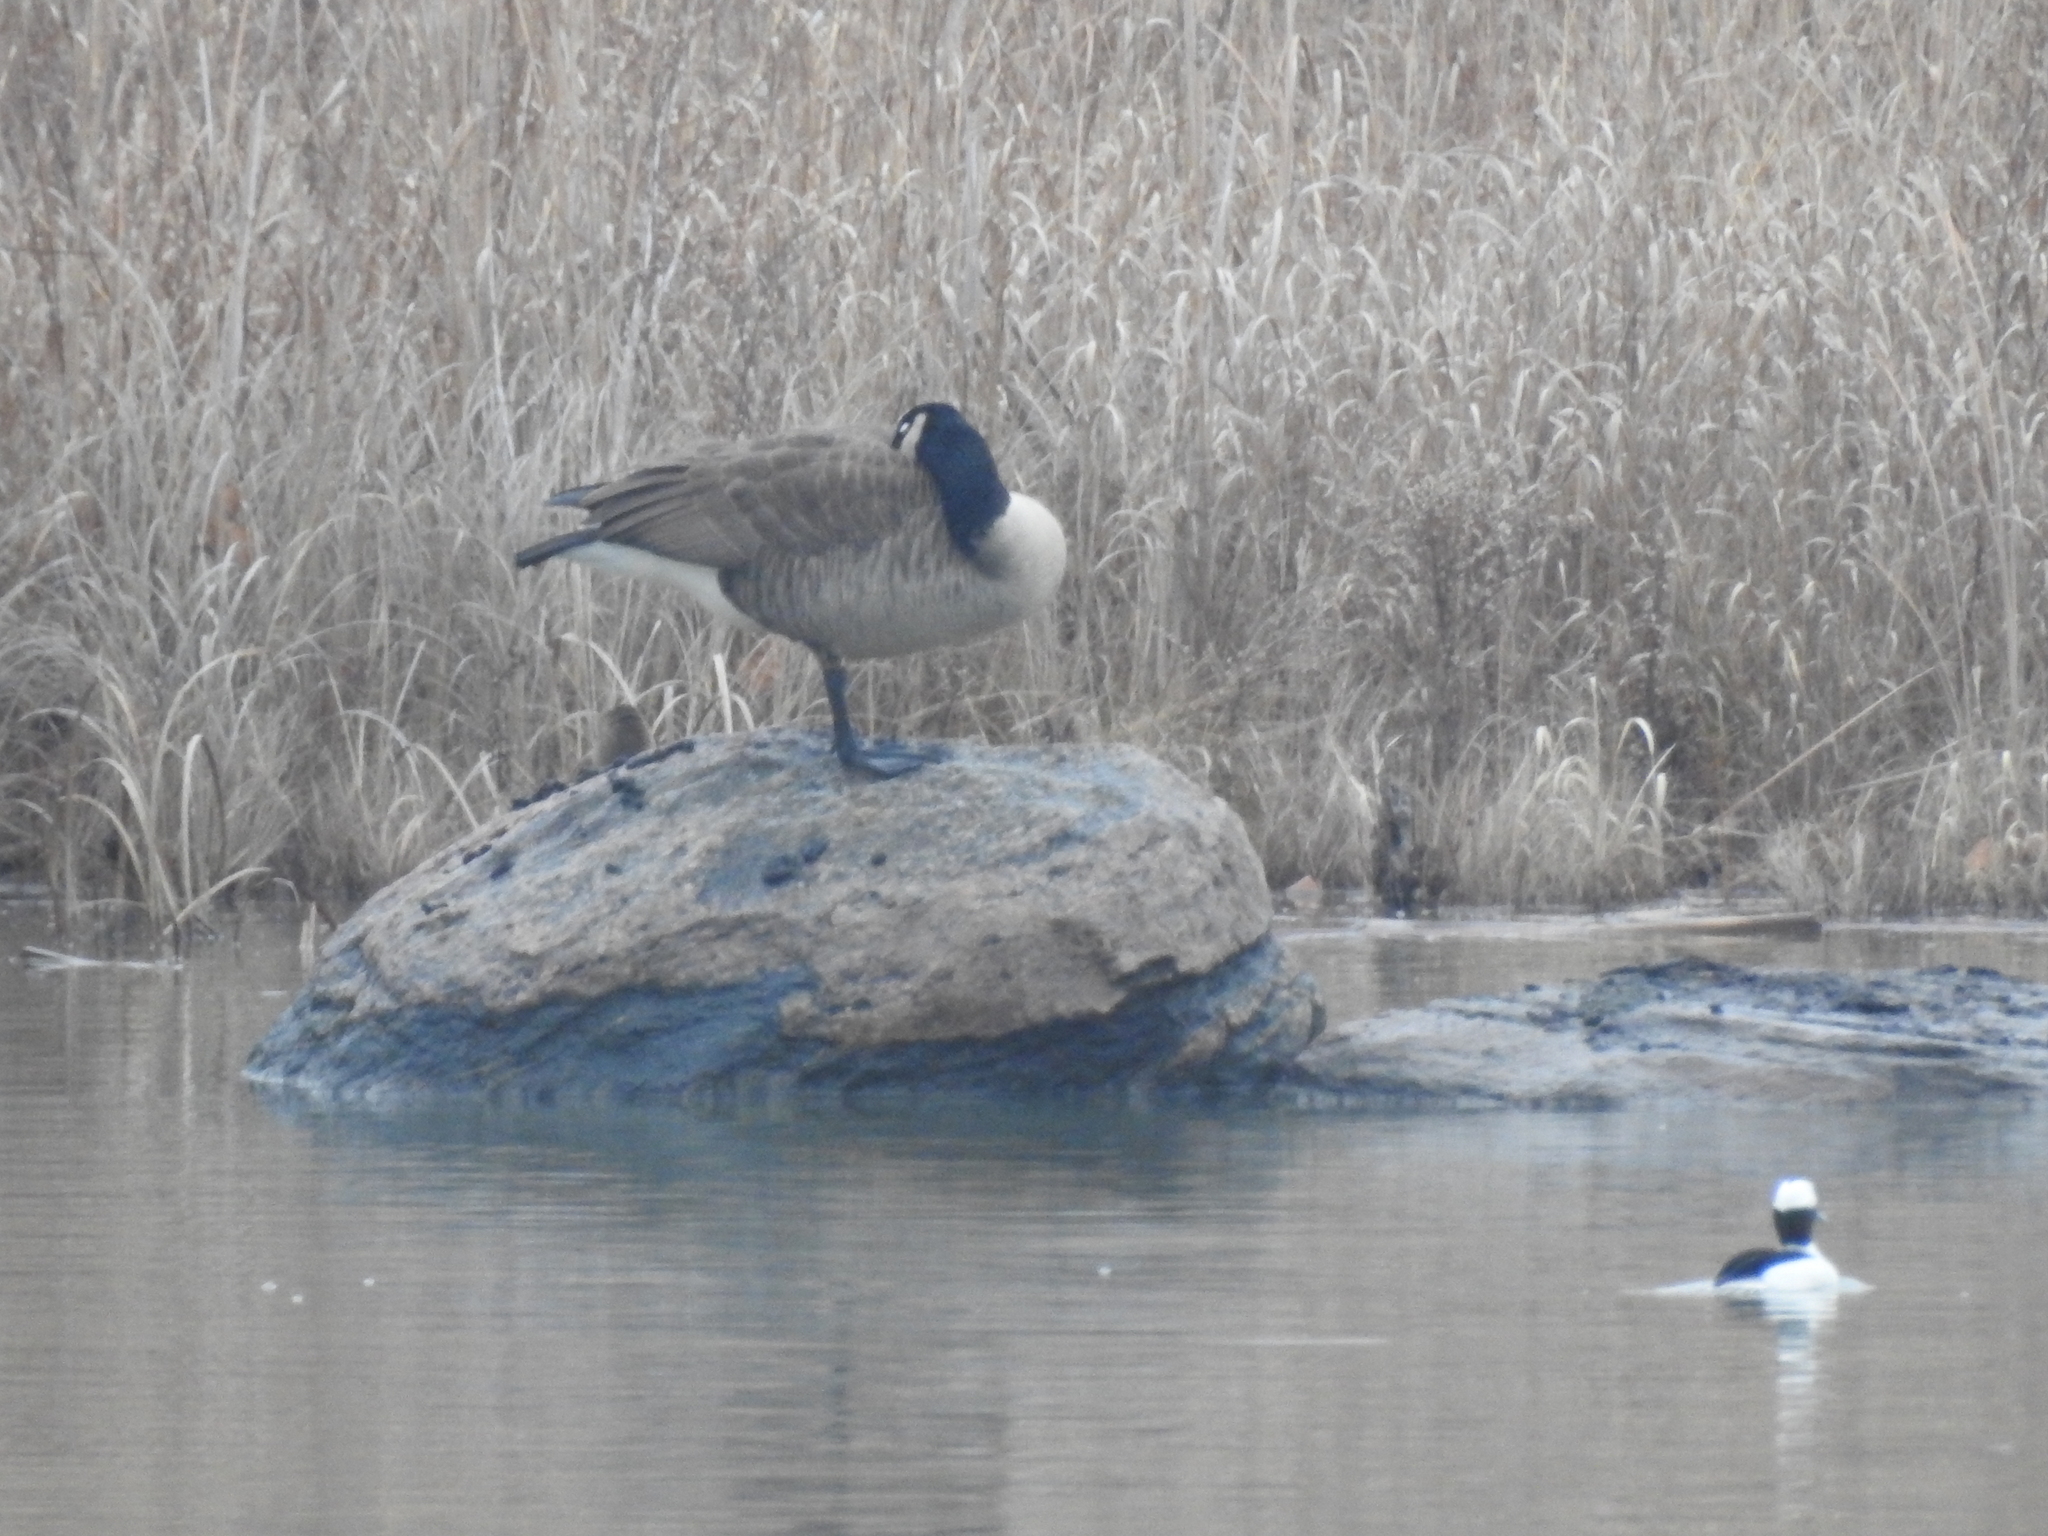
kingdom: Animalia
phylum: Chordata
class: Aves
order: Anseriformes
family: Anatidae
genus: Branta
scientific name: Branta canadensis
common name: Canada goose
